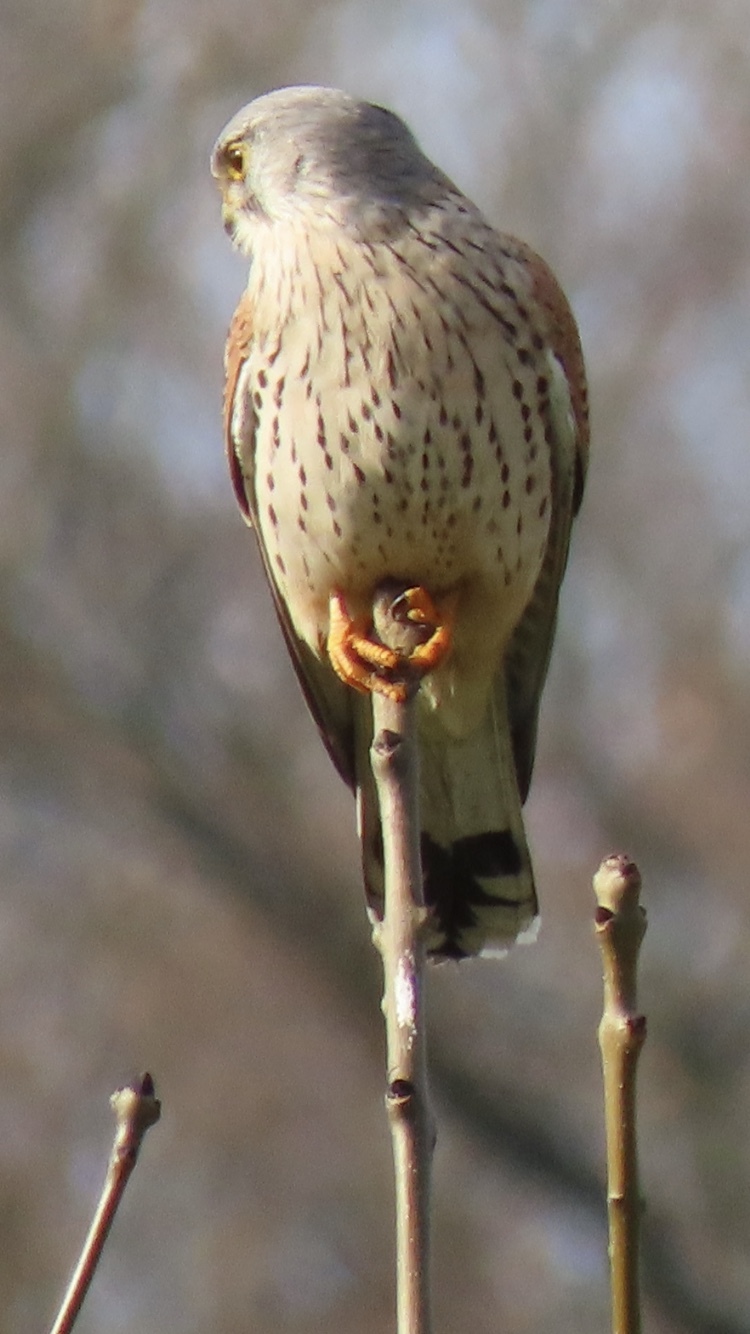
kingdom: Animalia
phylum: Chordata
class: Aves
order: Falconiformes
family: Falconidae
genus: Falco
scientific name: Falco tinnunculus
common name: Common kestrel
